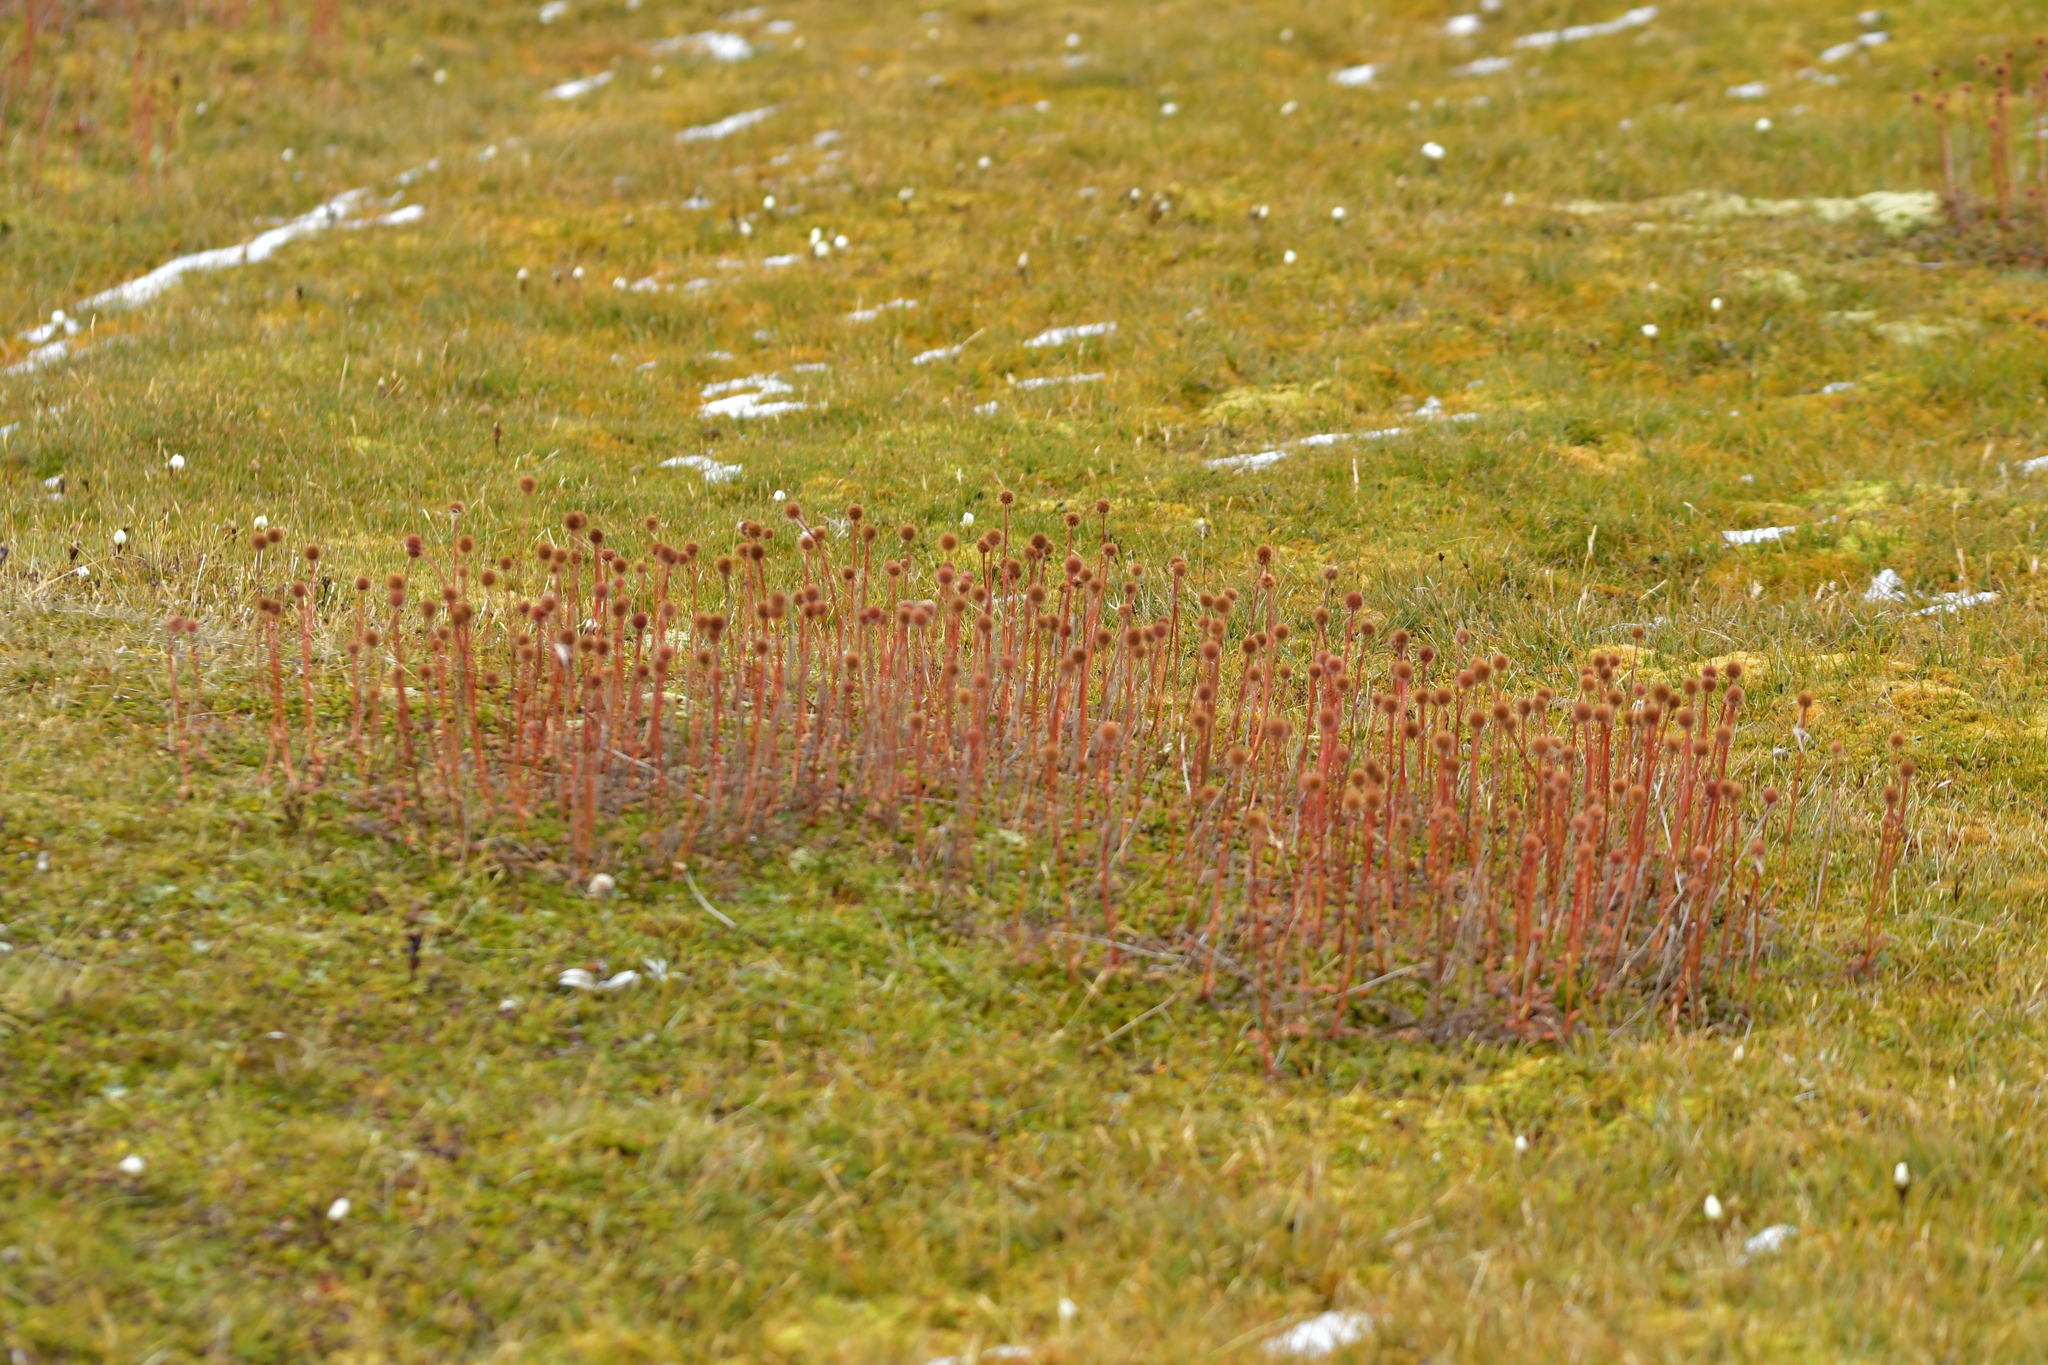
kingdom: Plantae
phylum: Tracheophyta
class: Magnoliopsida
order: Rosales
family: Rosaceae
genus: Acaena
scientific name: Acaena saccaticupula
